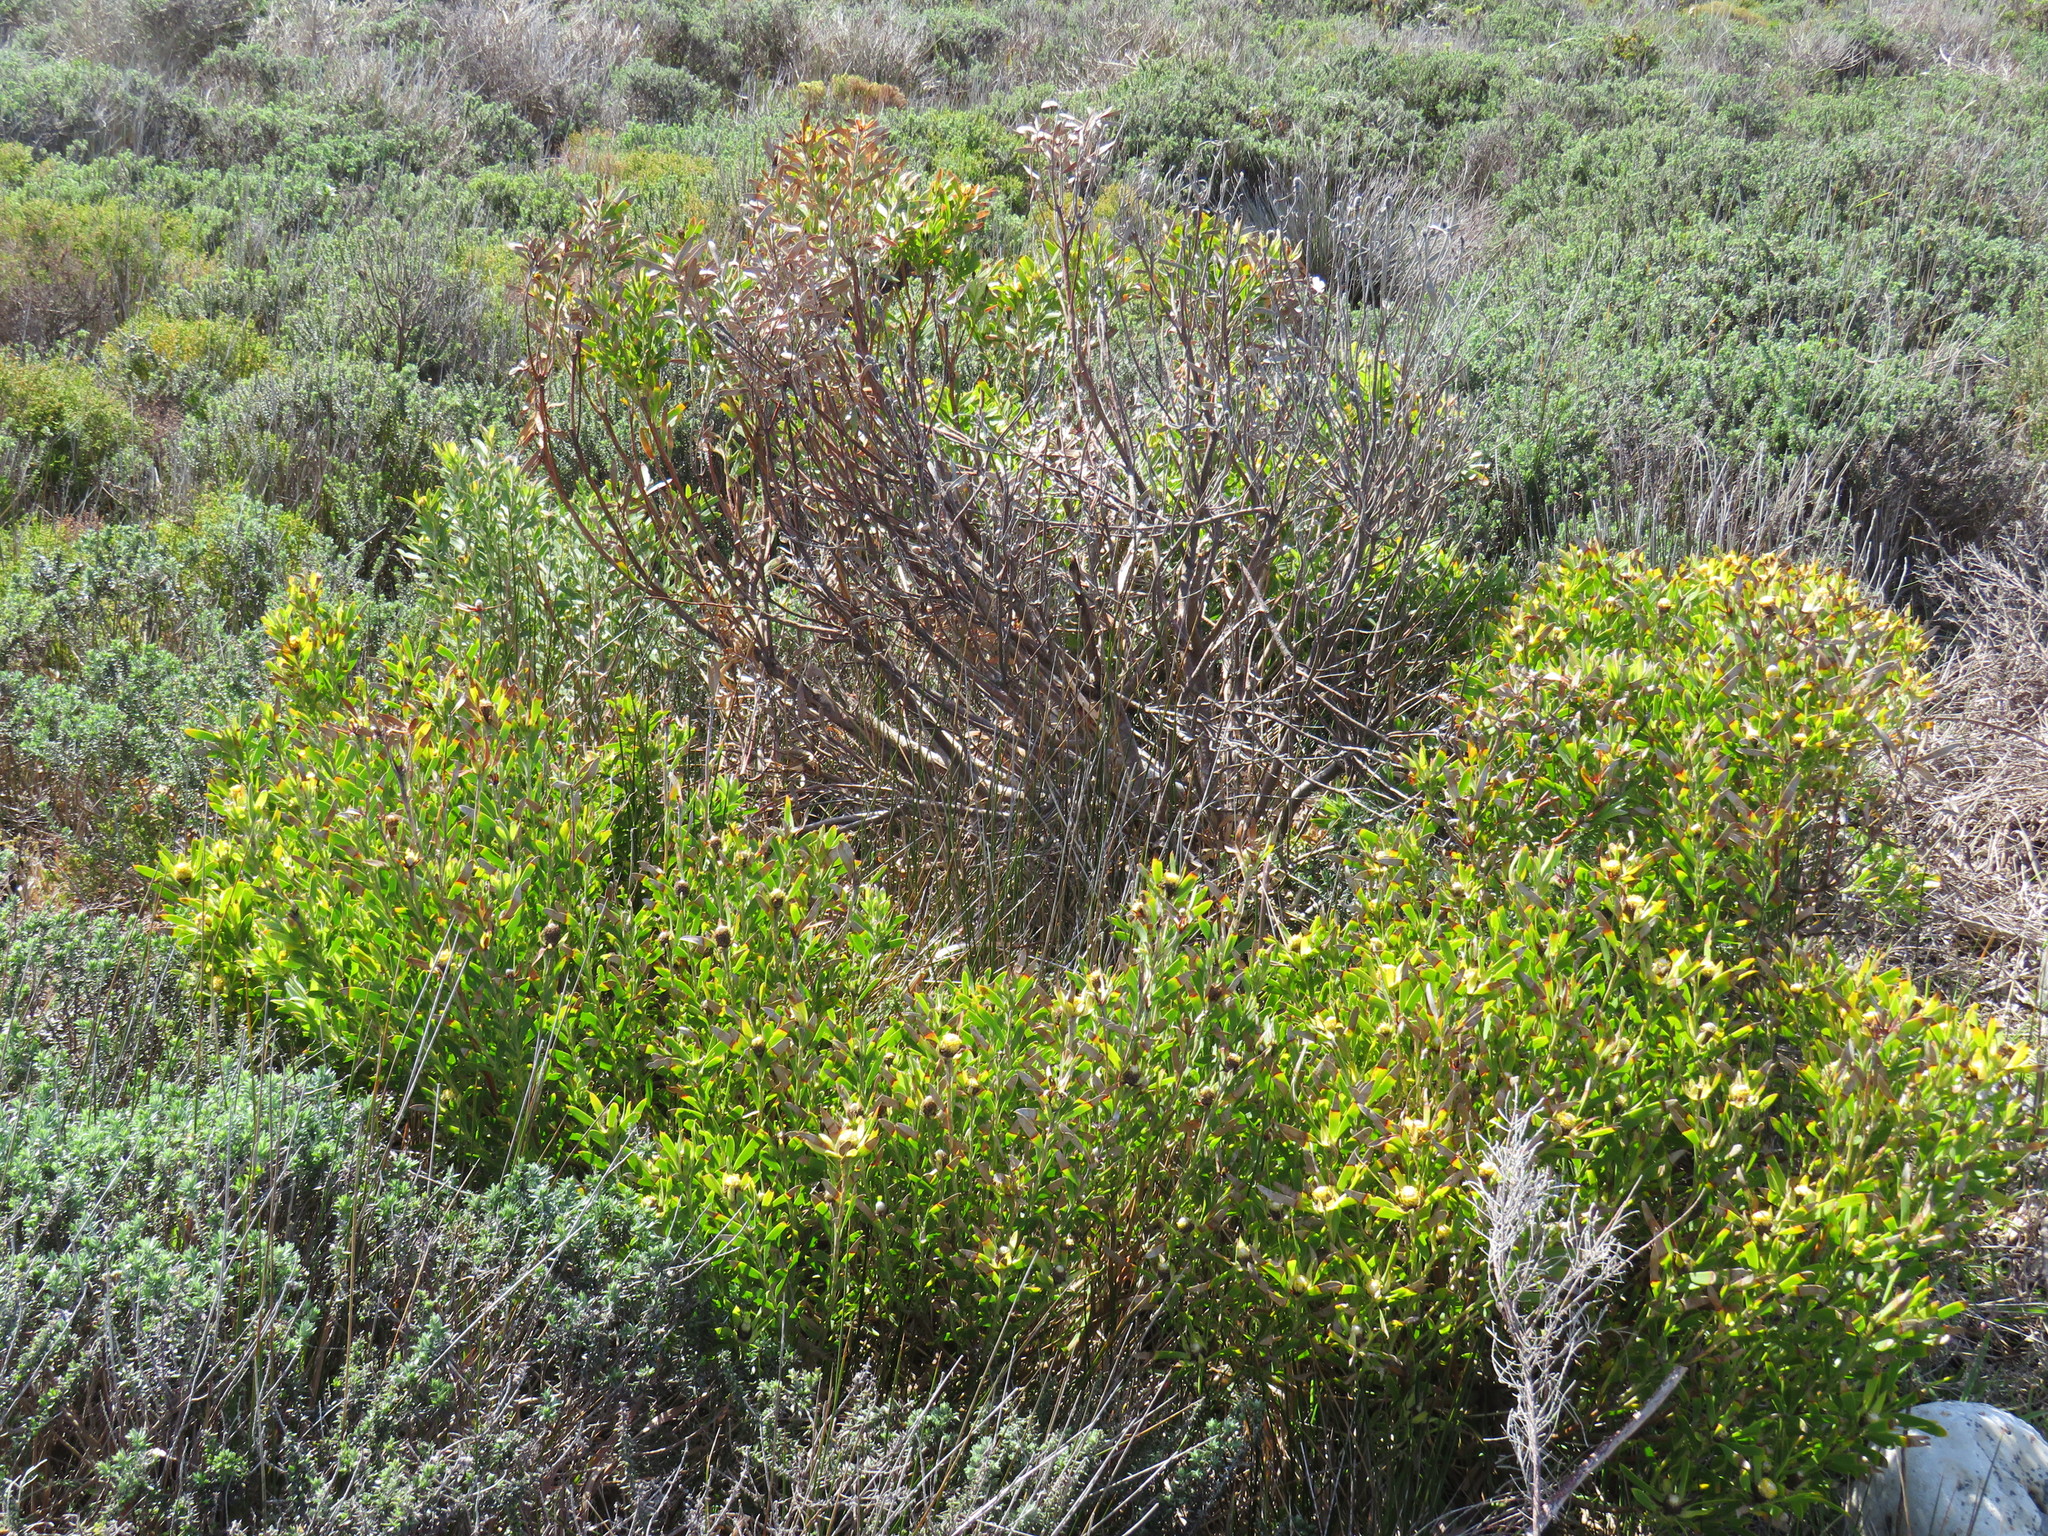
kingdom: Plantae
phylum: Tracheophyta
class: Magnoliopsida
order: Proteales
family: Proteaceae
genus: Leucadendron
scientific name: Leucadendron coniferum
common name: Dune conebush
